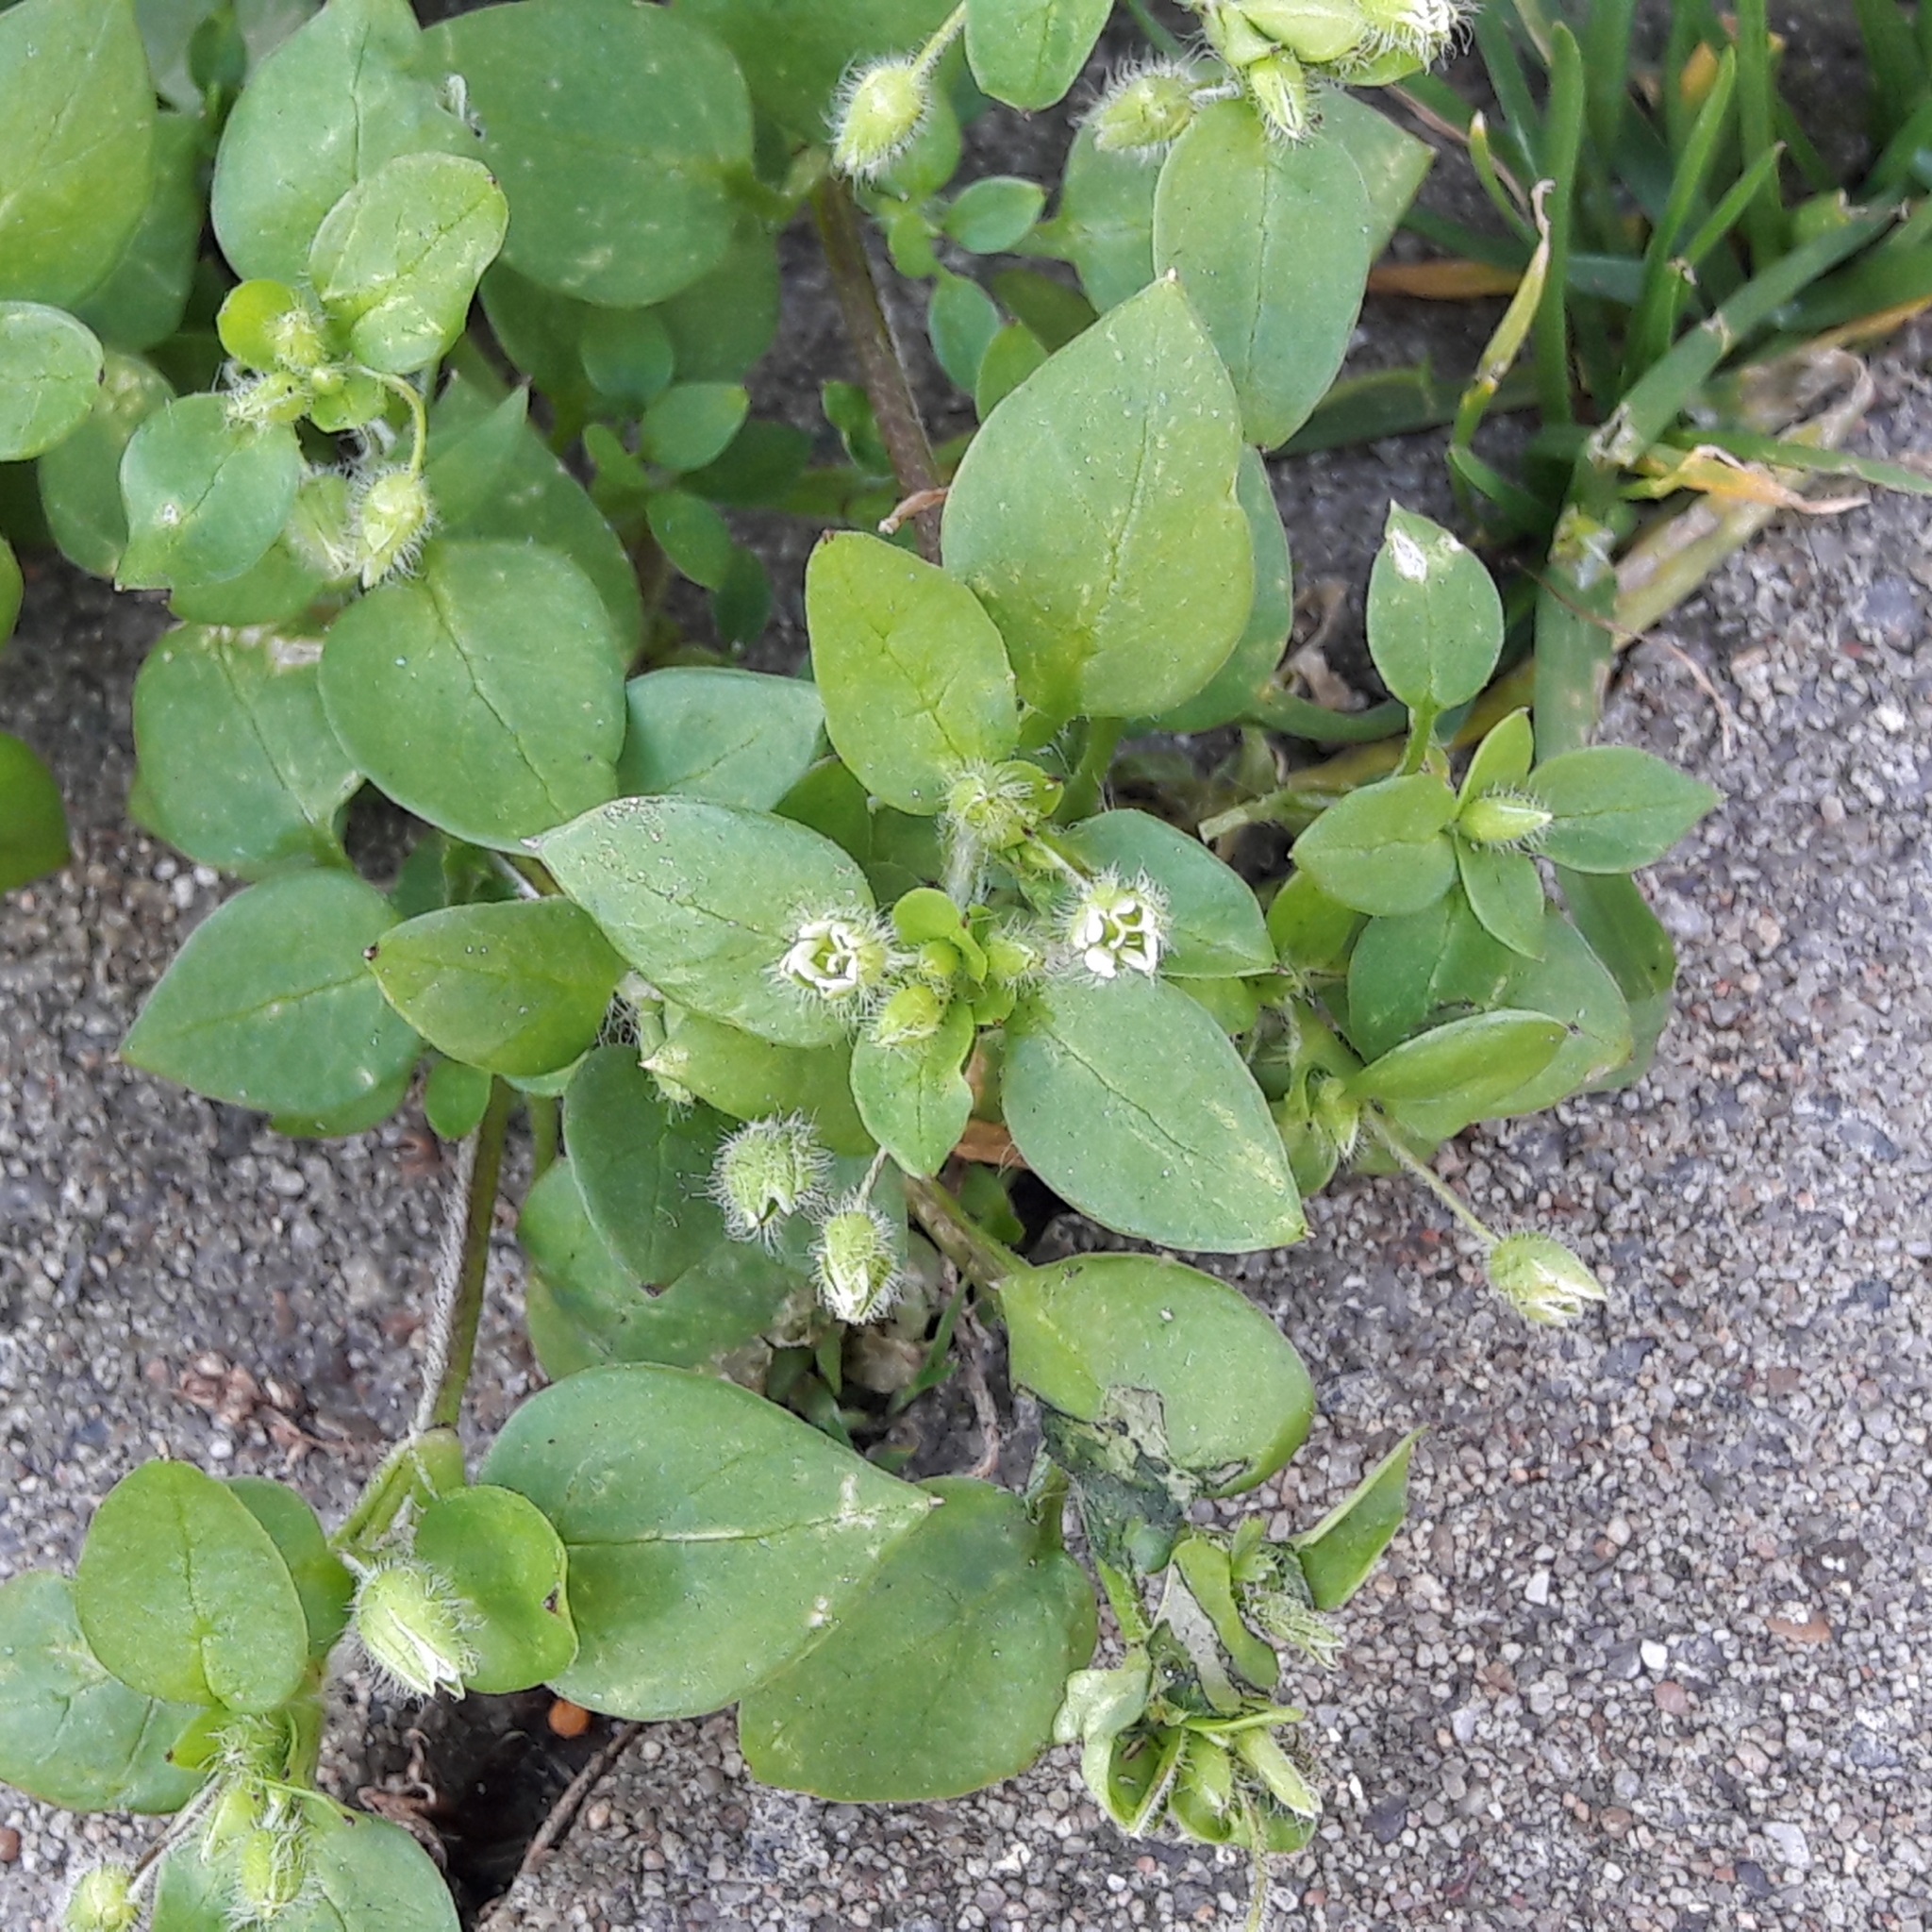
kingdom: Plantae
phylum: Tracheophyta
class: Magnoliopsida
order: Caryophyllales
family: Caryophyllaceae
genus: Stellaria
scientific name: Stellaria media
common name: Common chickweed
